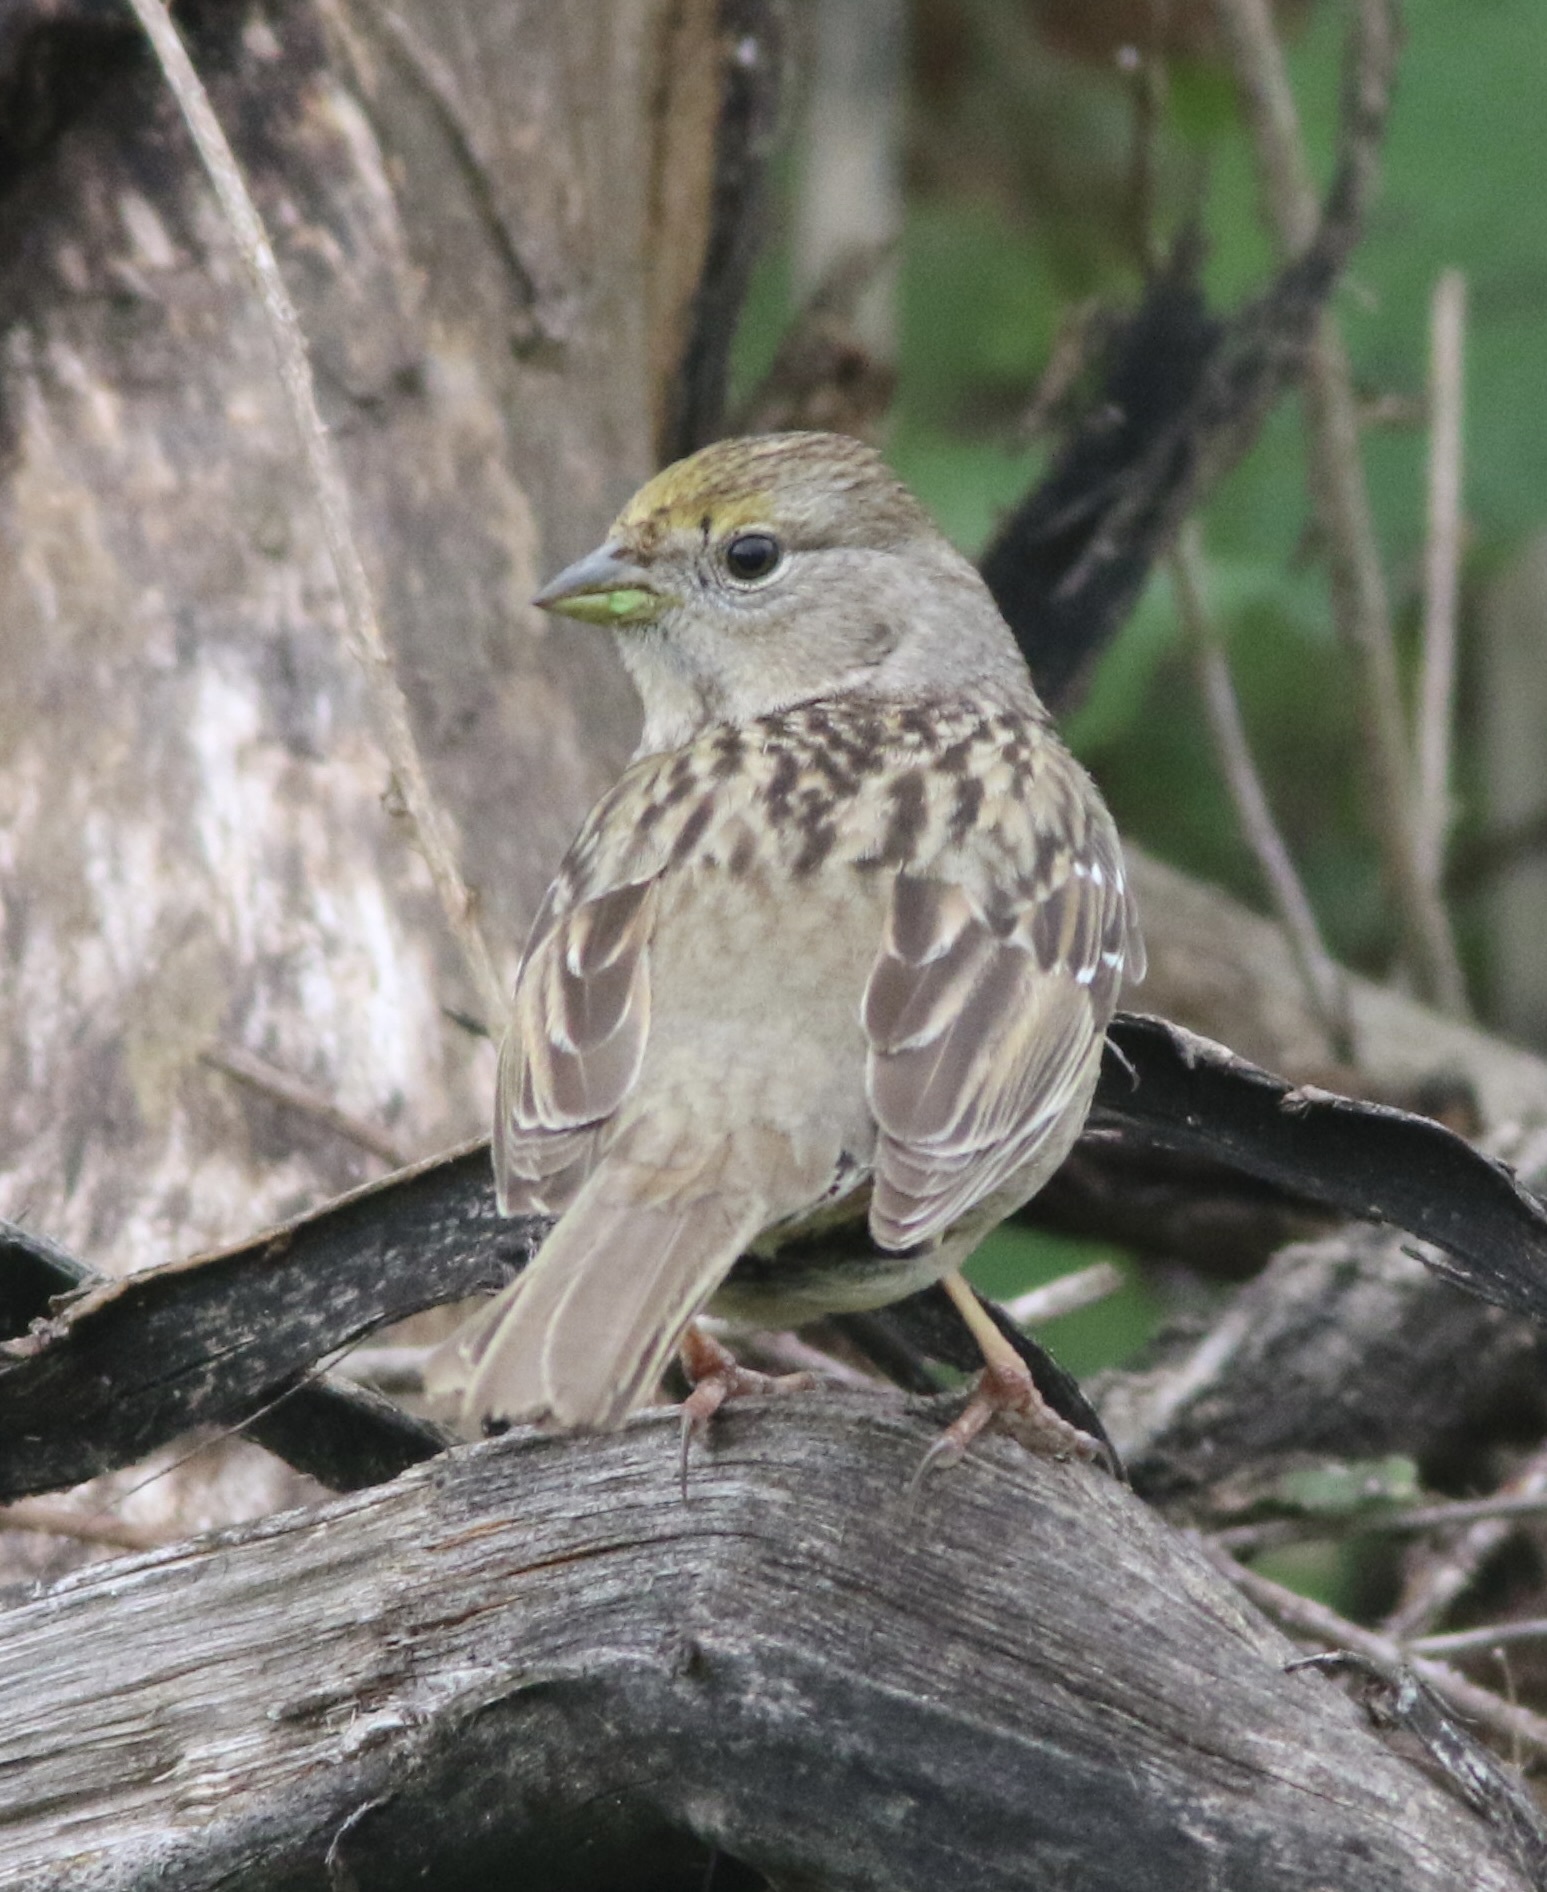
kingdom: Animalia
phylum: Chordata
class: Aves
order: Passeriformes
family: Passerellidae
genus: Zonotrichia
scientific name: Zonotrichia atricapilla
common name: Golden-crowned sparrow
